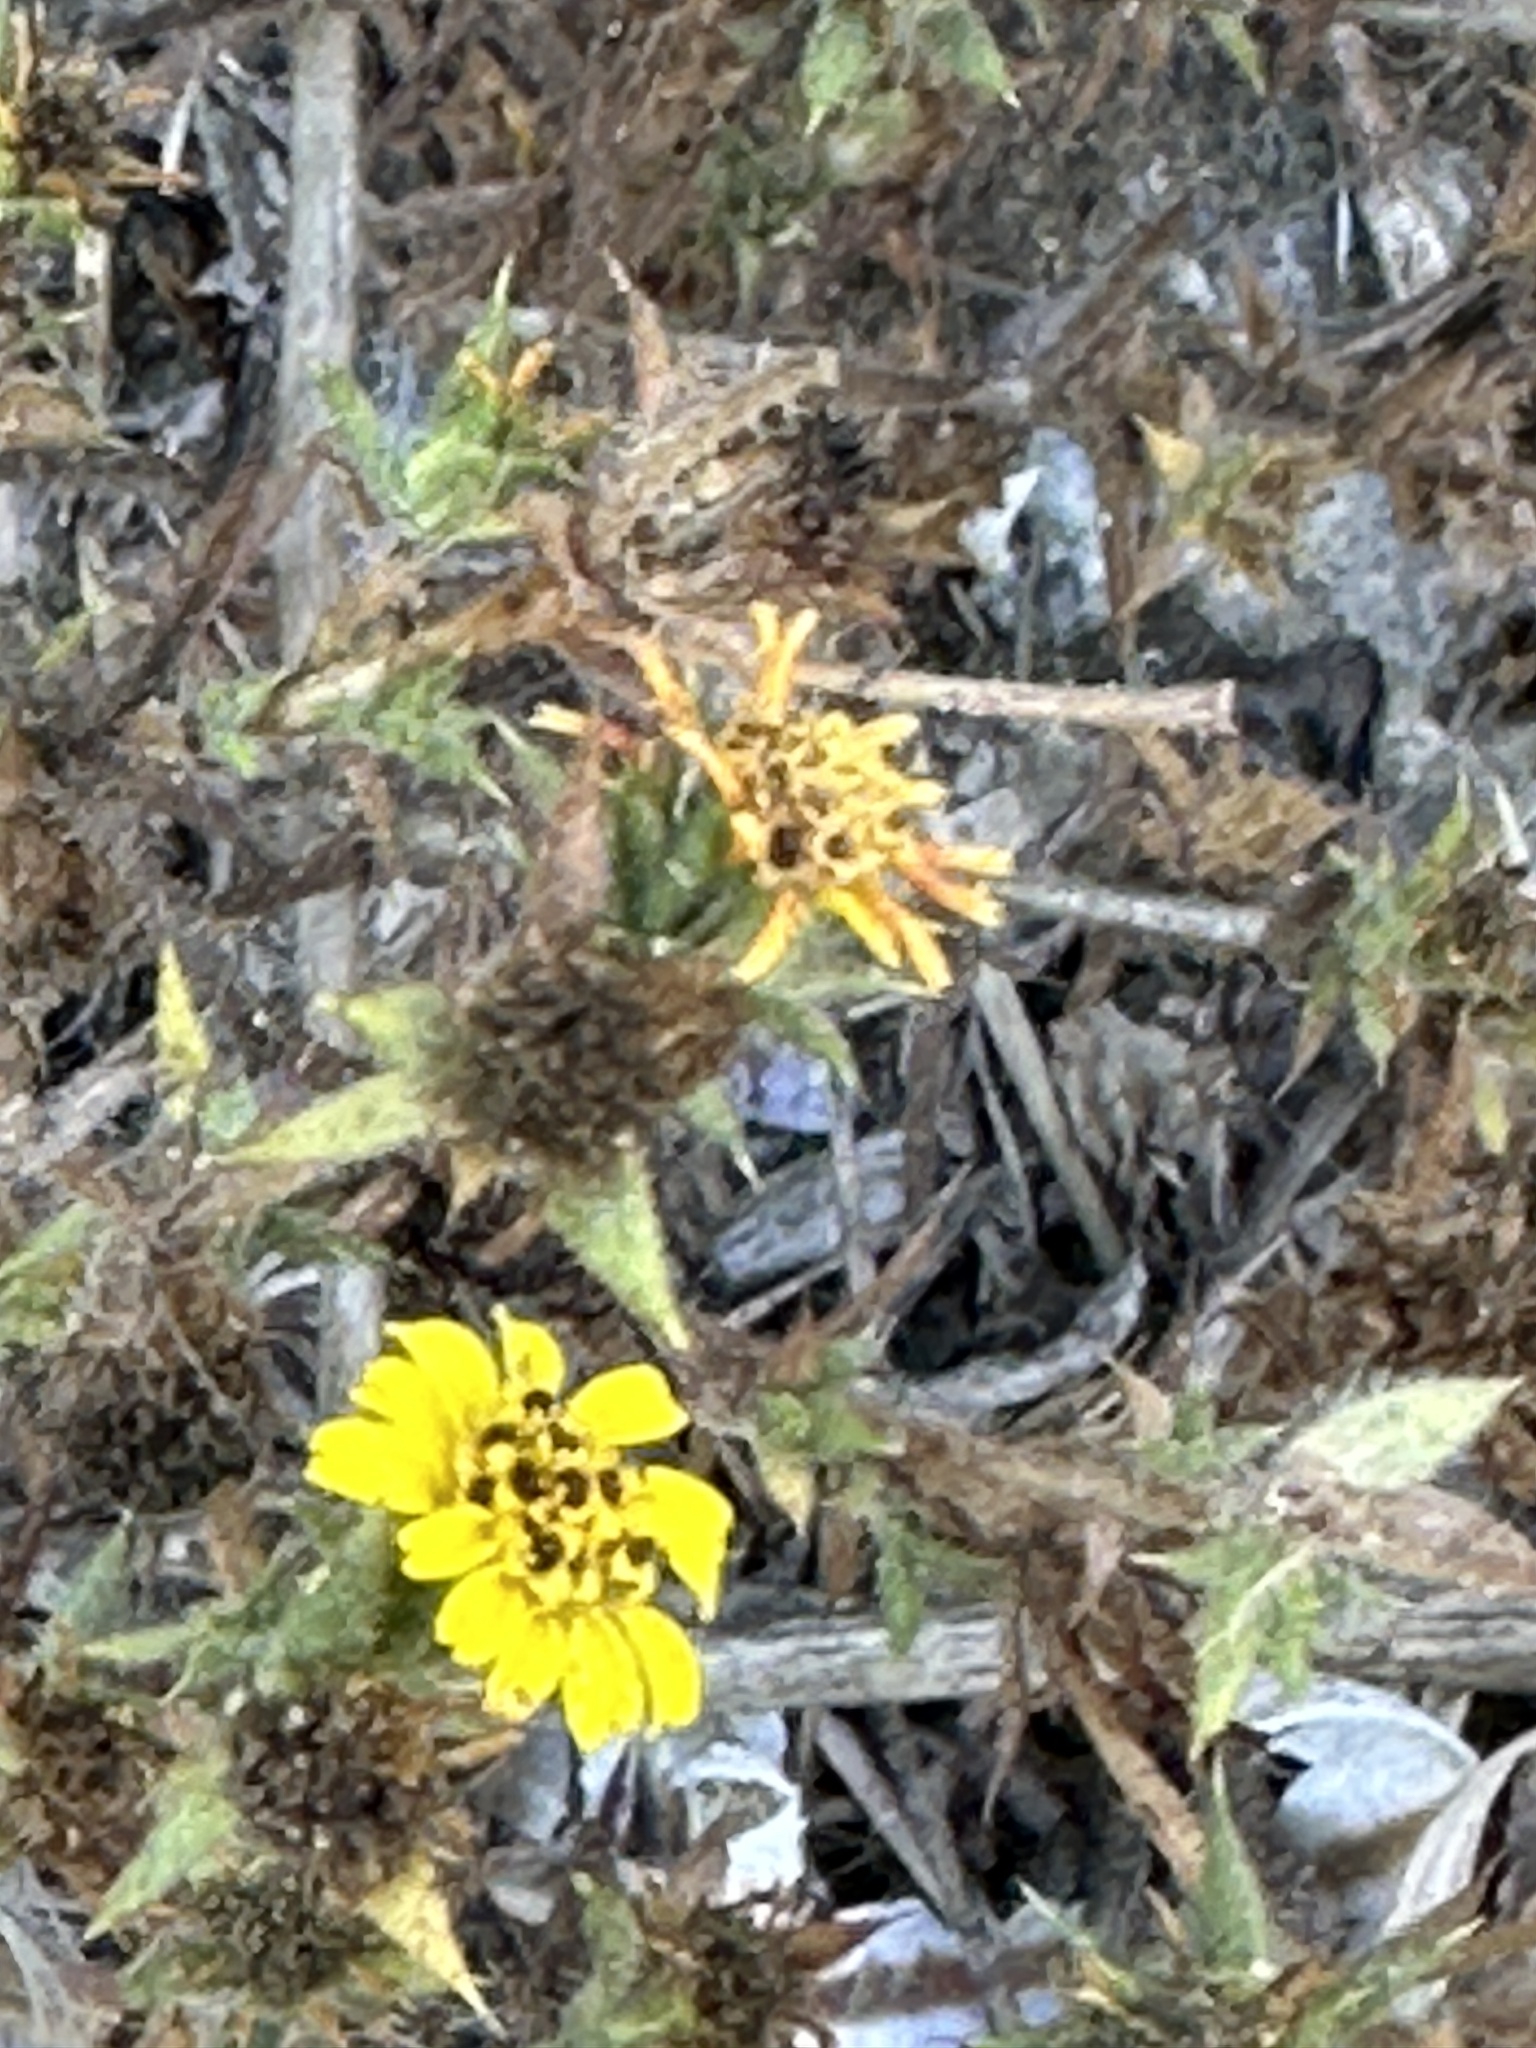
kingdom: Plantae
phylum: Tracheophyta
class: Magnoliopsida
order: Asterales
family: Asteraceae
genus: Centromadia
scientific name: Centromadia parryi
